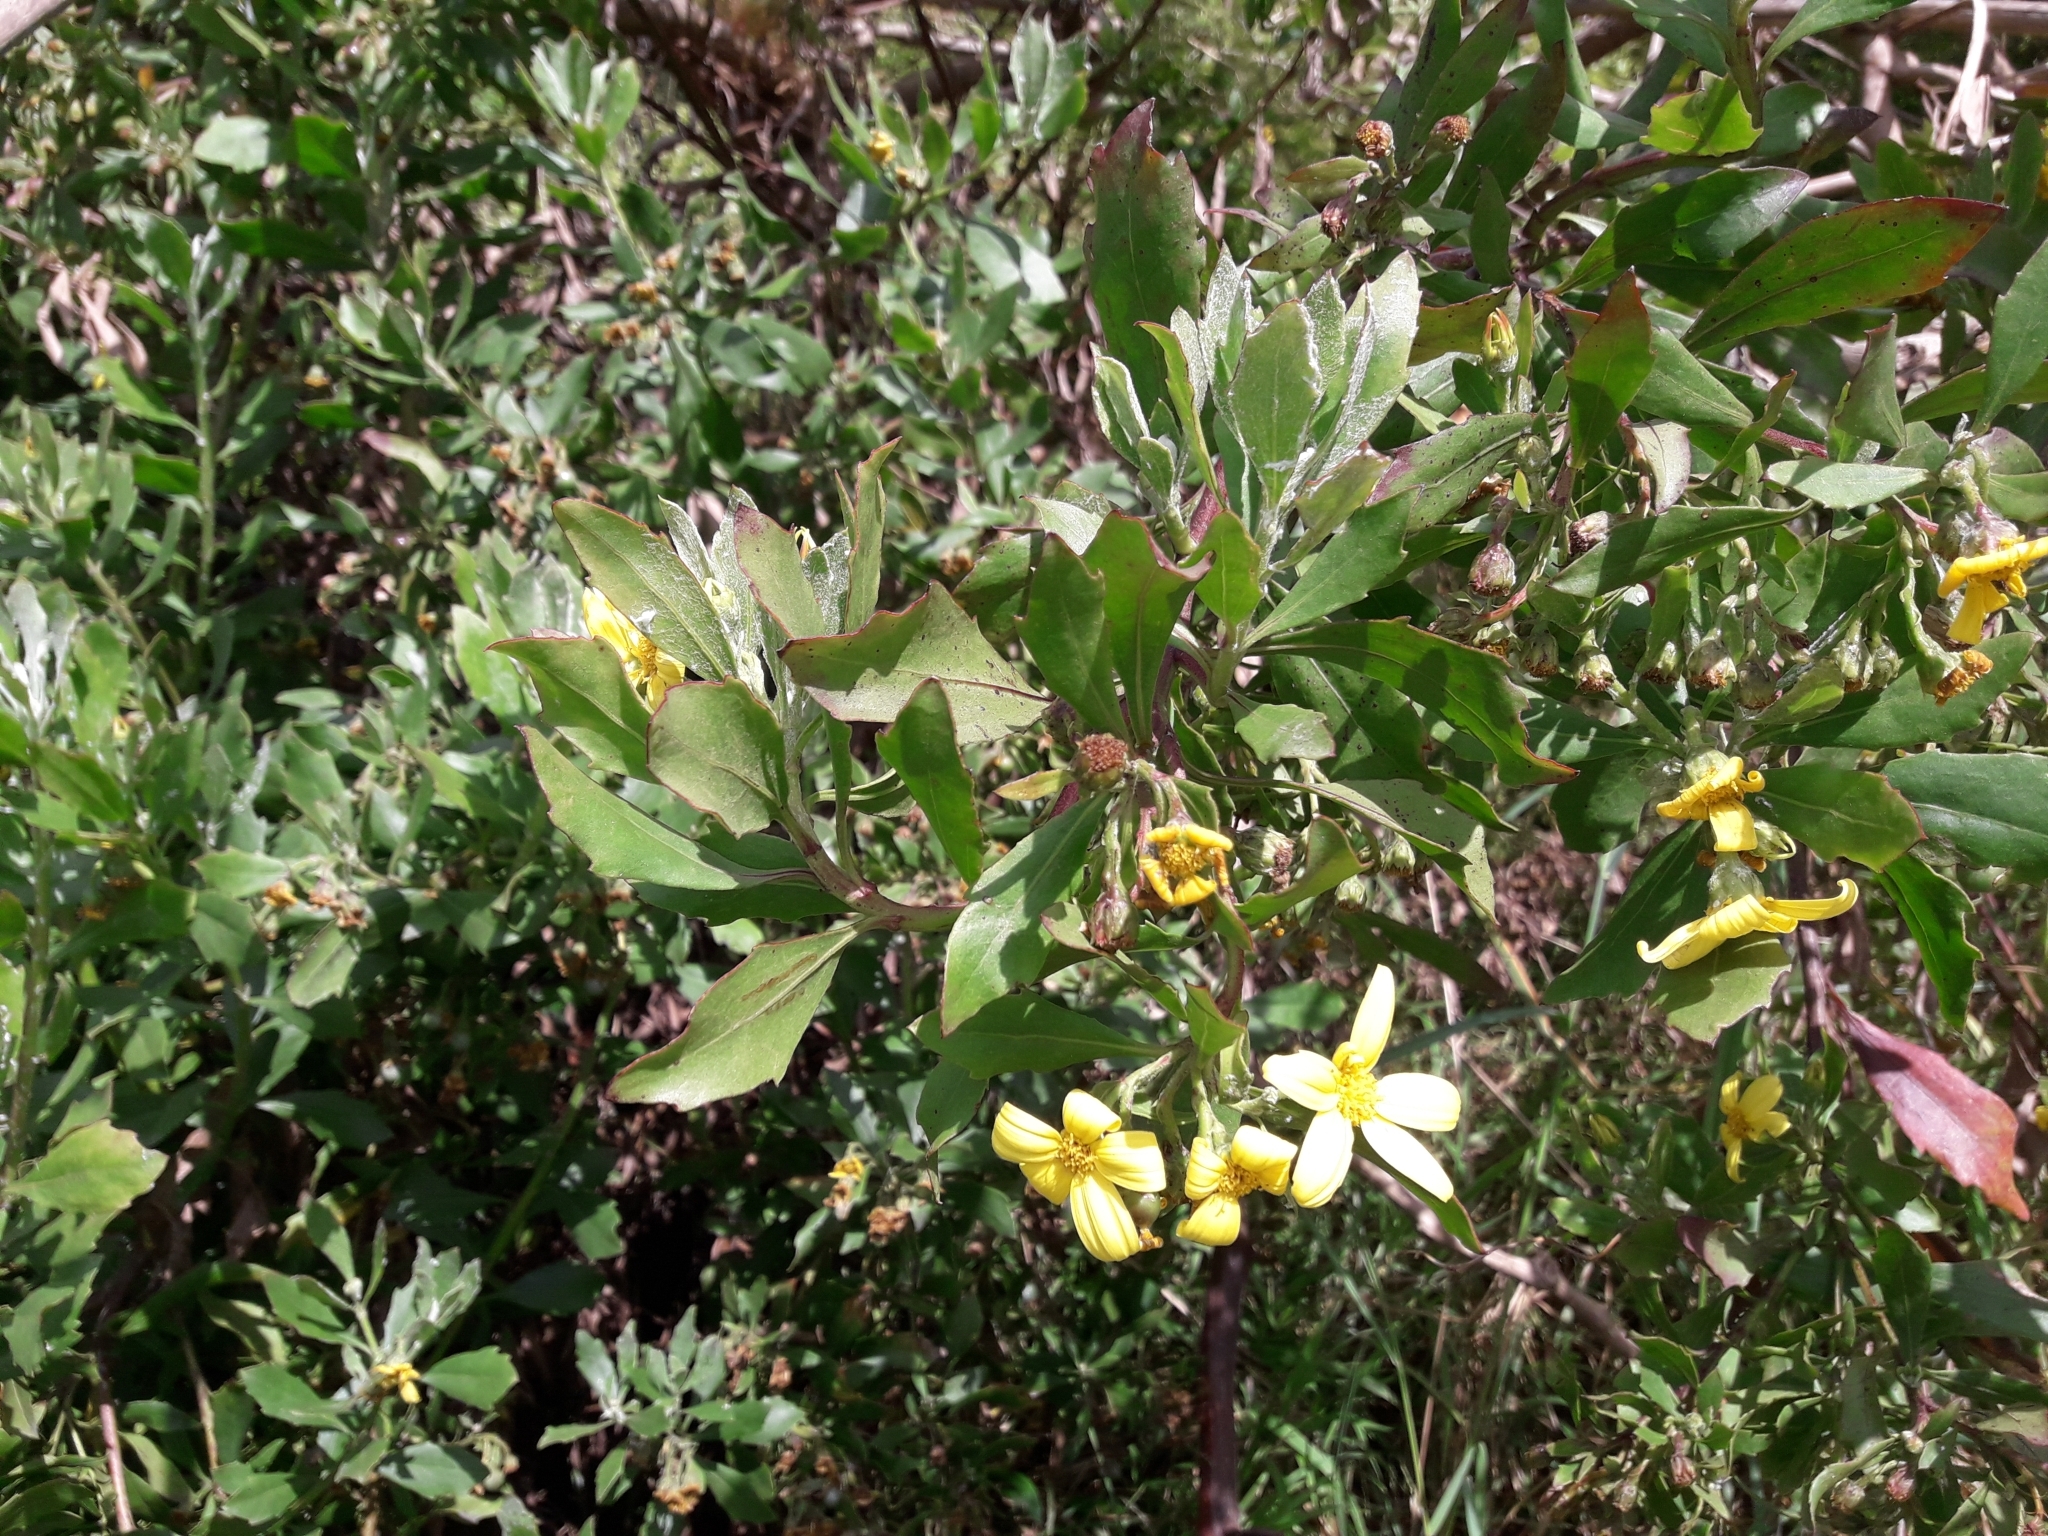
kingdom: Plantae
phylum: Tracheophyta
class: Magnoliopsida
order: Asterales
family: Asteraceae
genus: Osteospermum
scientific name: Osteospermum moniliferum
